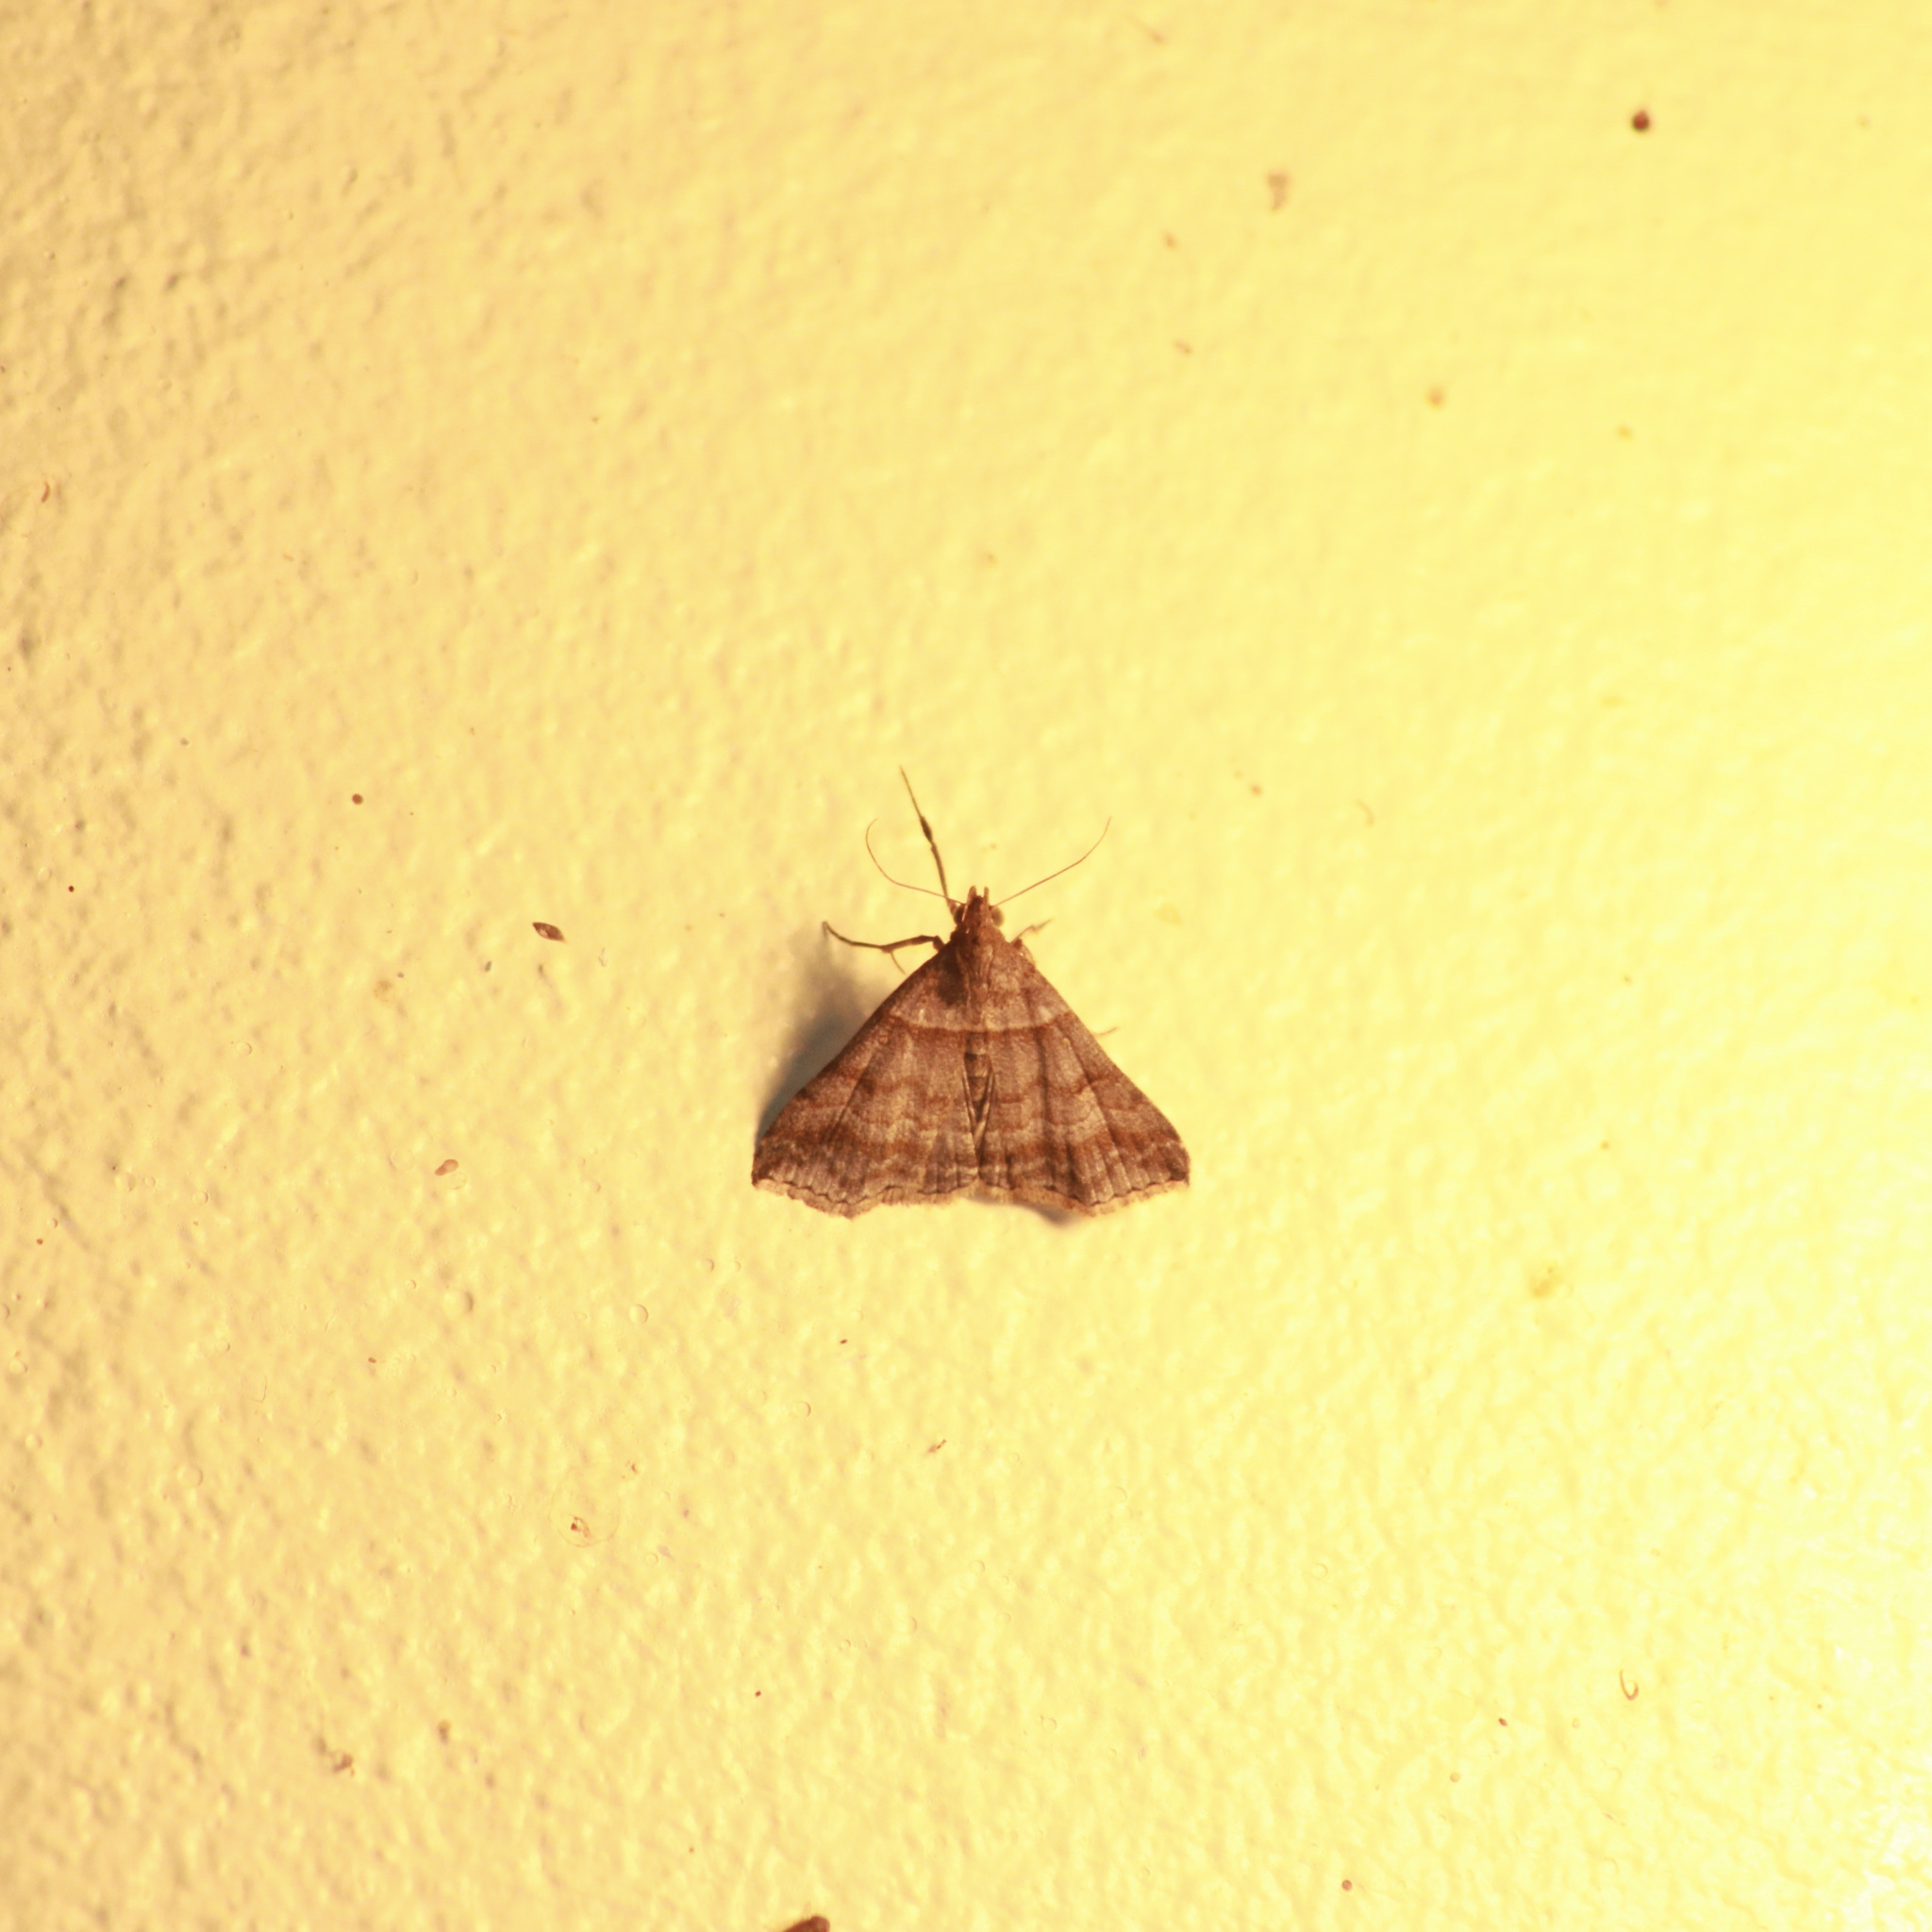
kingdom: Animalia
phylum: Arthropoda
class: Insecta
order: Lepidoptera
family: Erebidae
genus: Heterogramma
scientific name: Heterogramma circumflexalis
